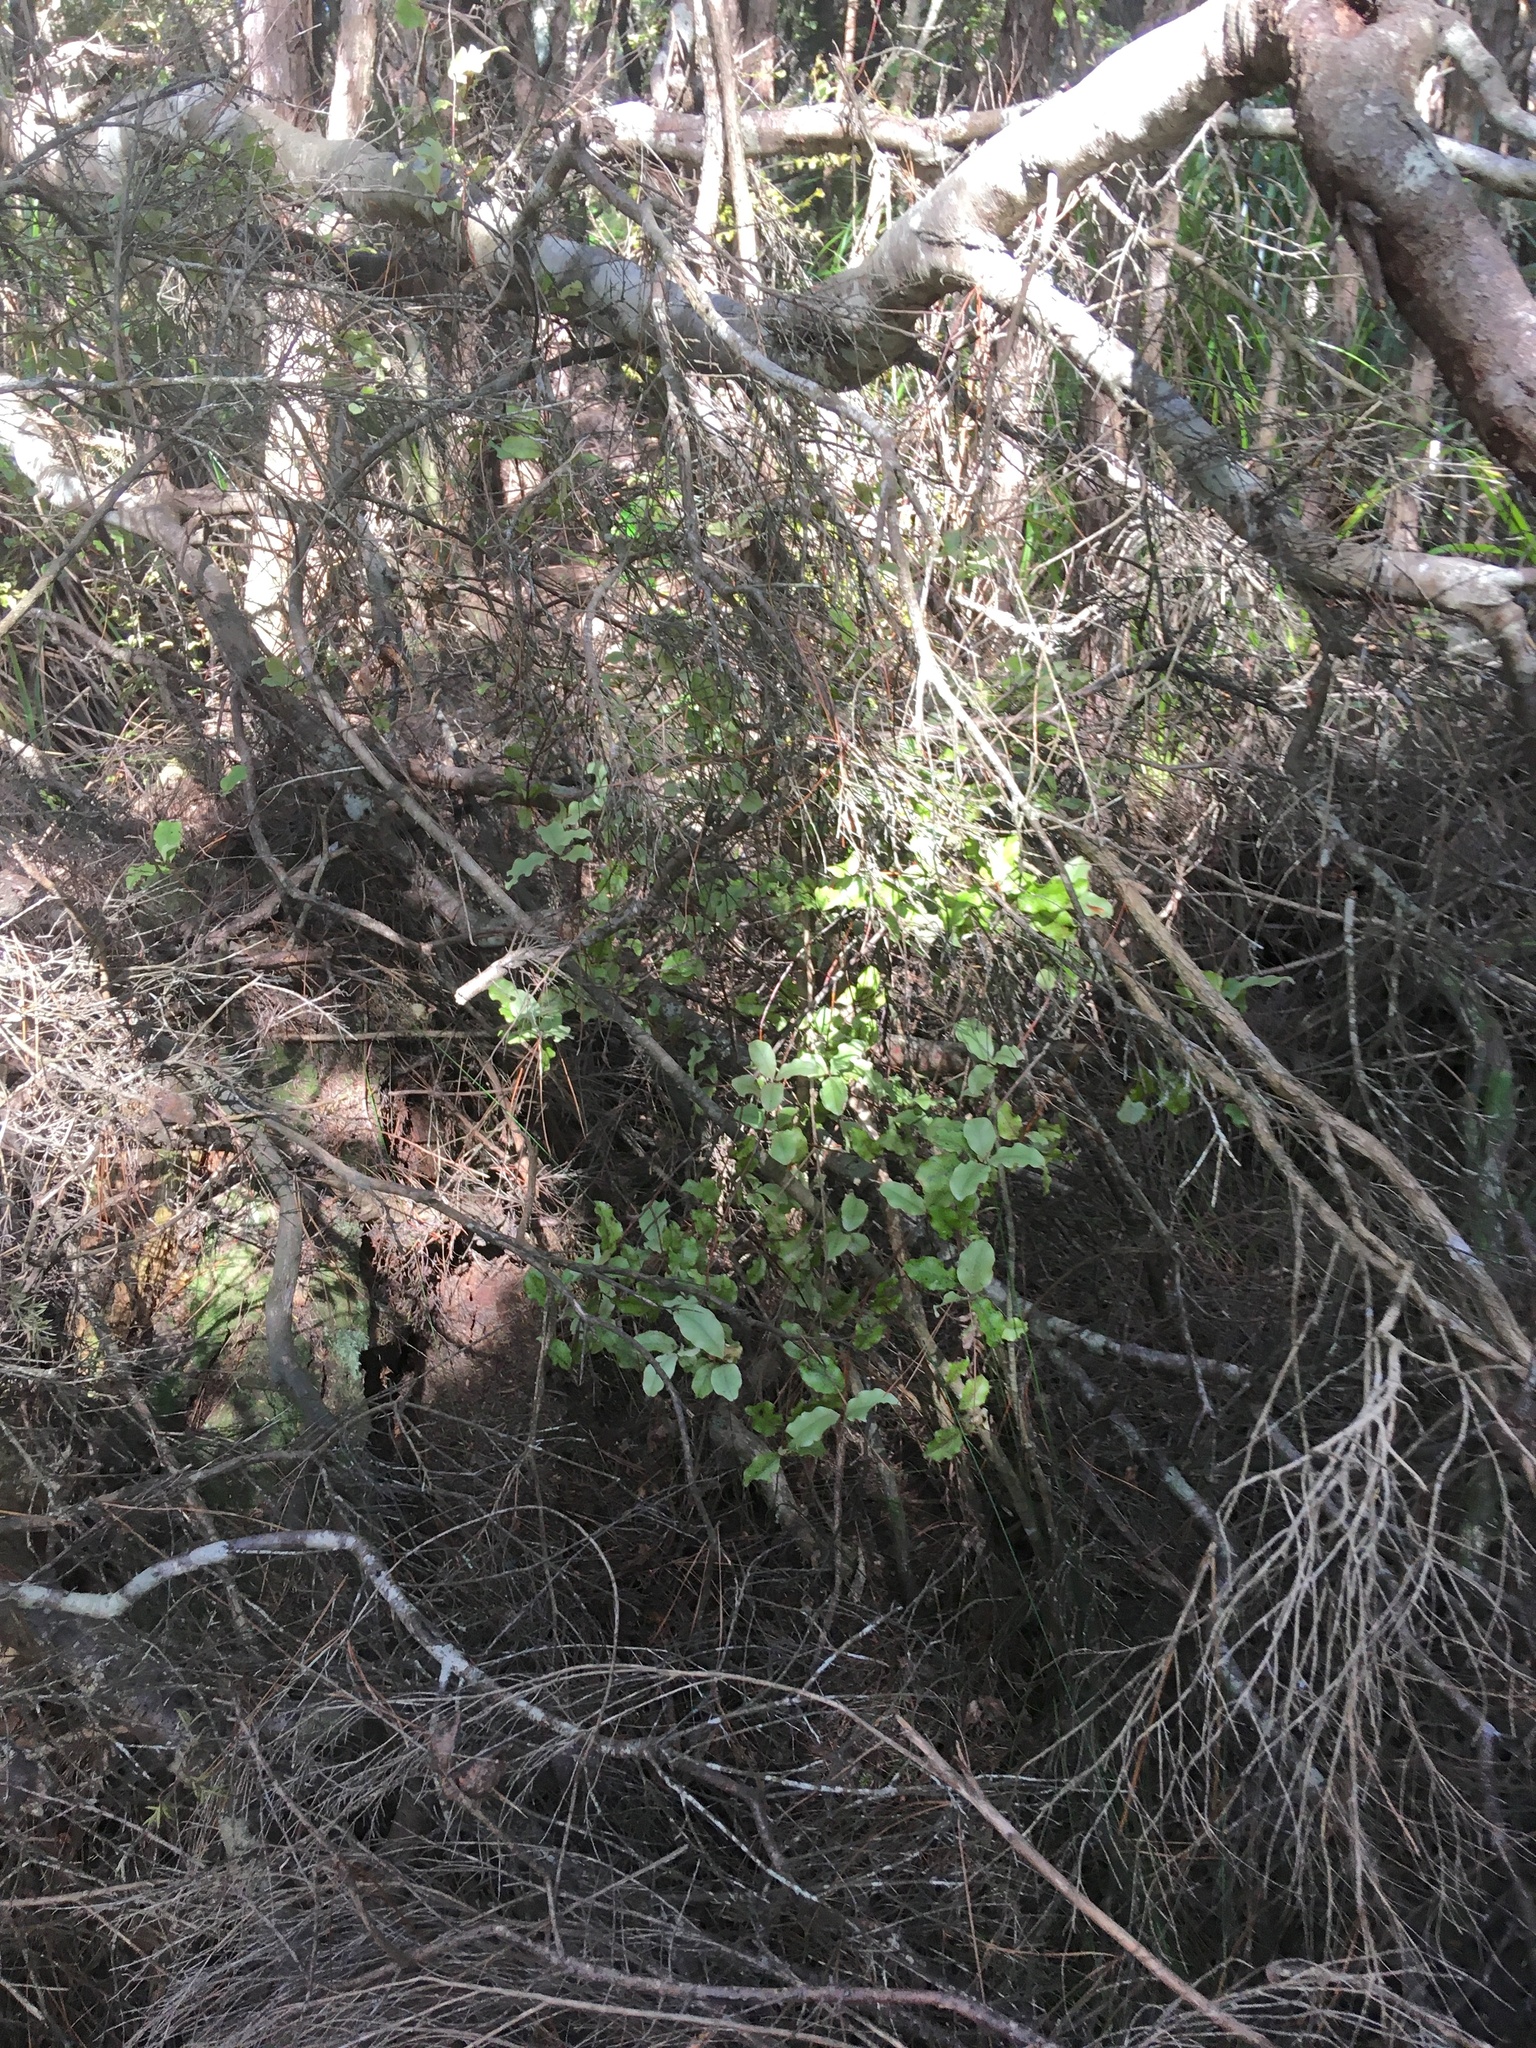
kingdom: Plantae
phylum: Tracheophyta
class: Magnoliopsida
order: Ericales
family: Primulaceae
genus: Myrsine
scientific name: Myrsine australis
